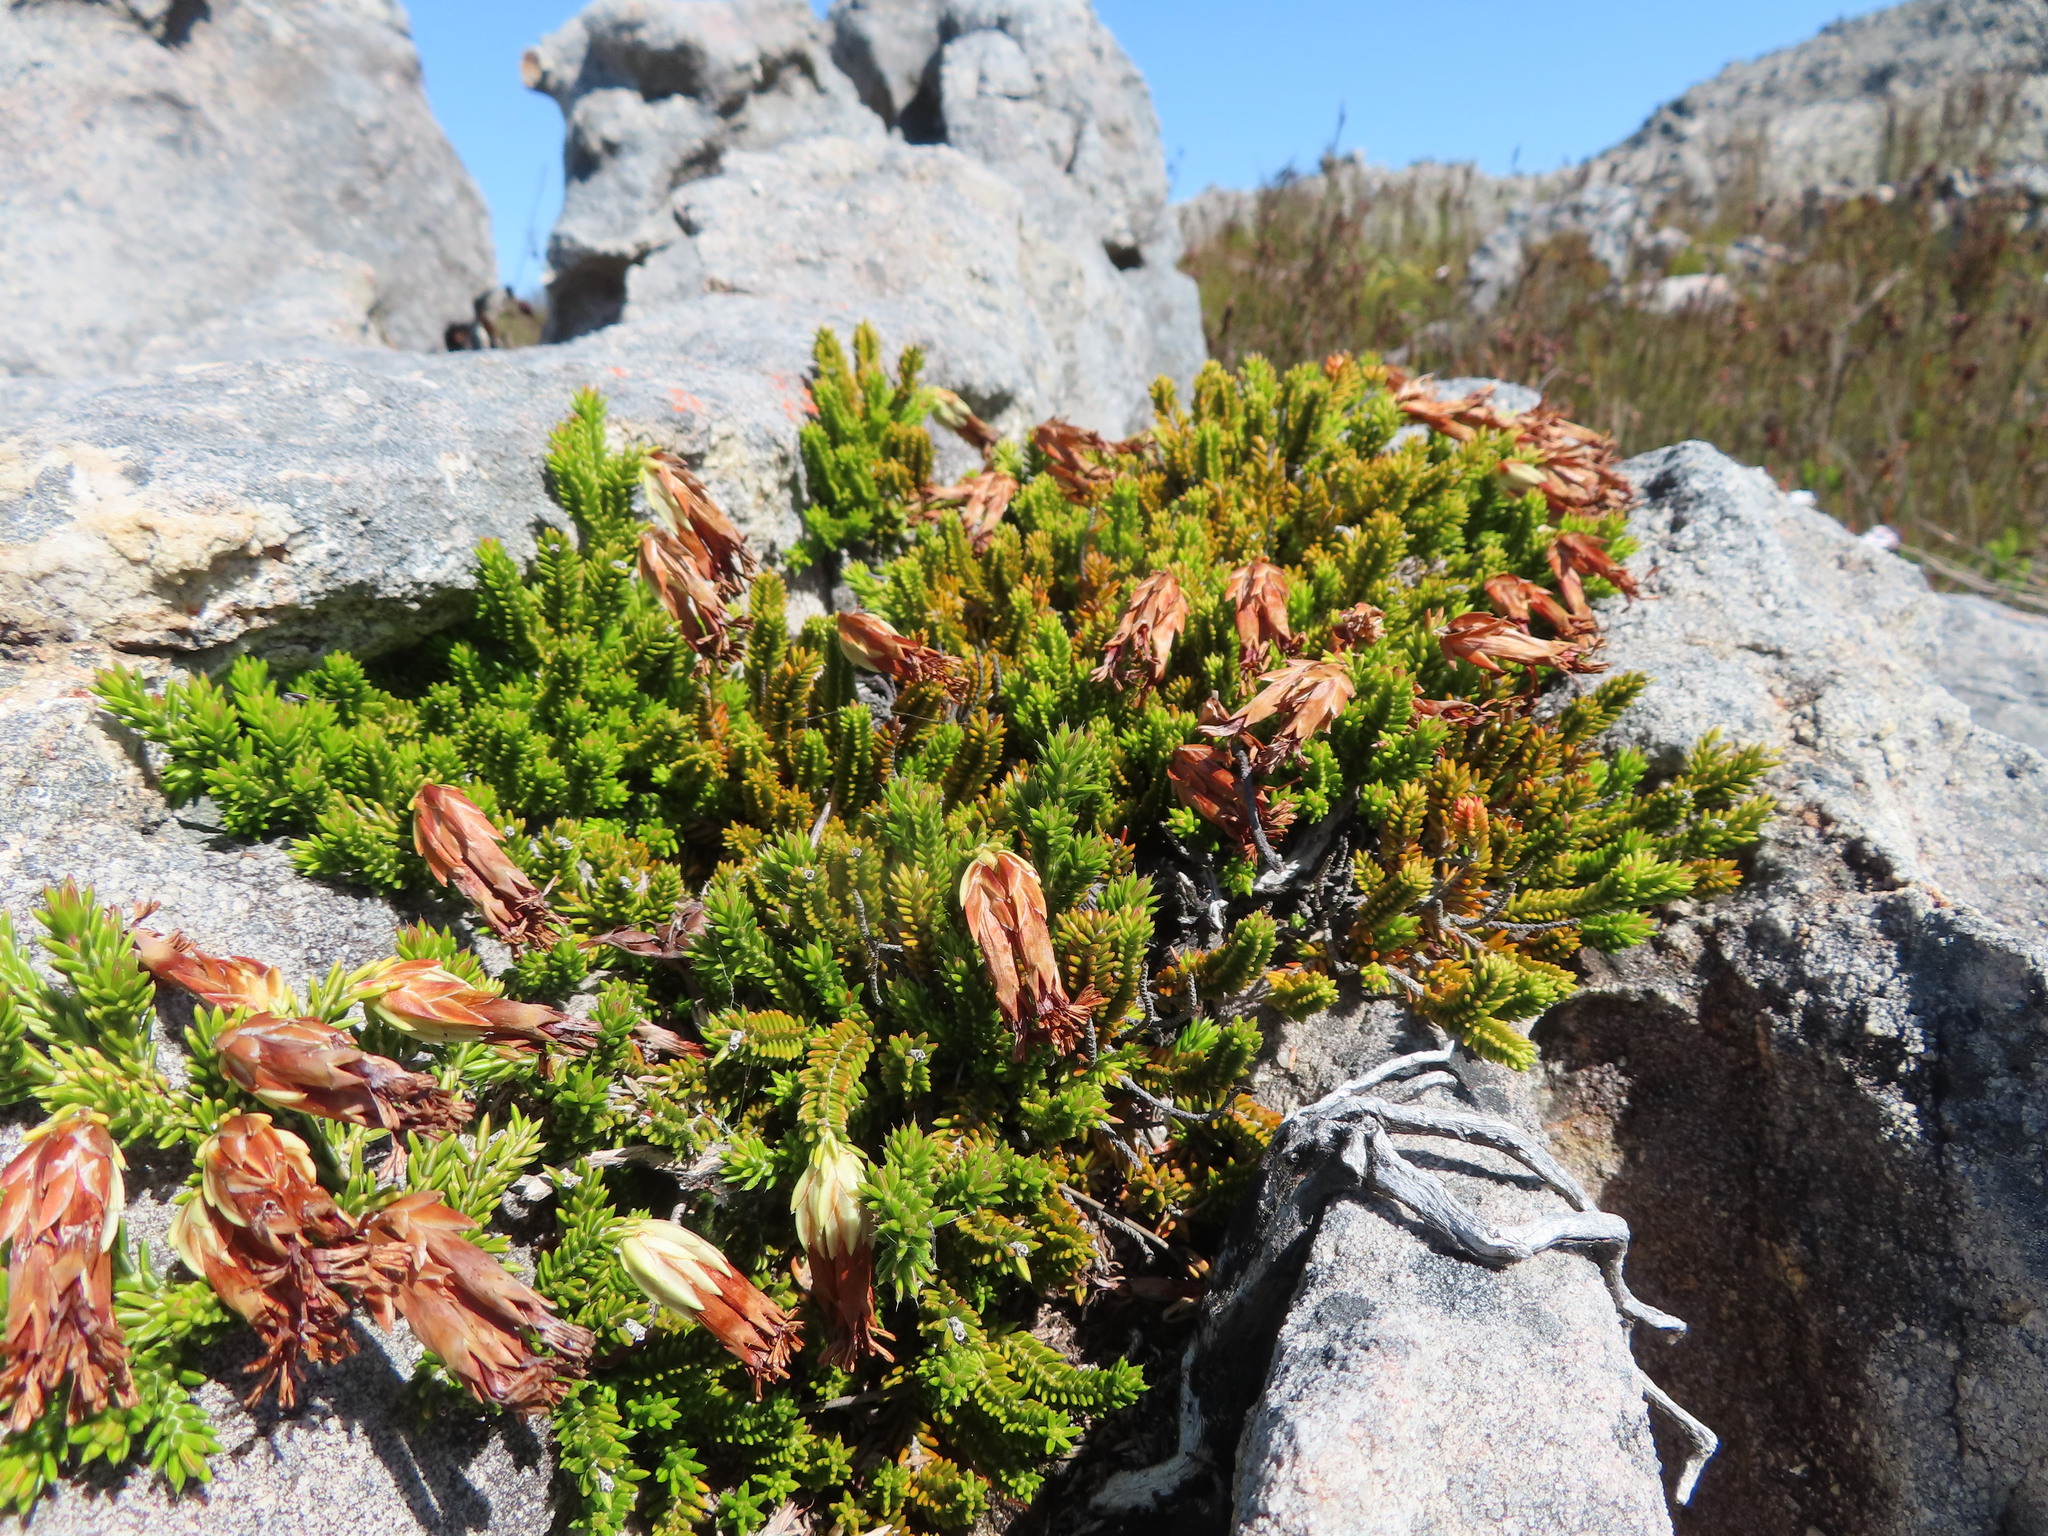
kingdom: Plantae
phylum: Tracheophyta
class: Magnoliopsida
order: Ericales
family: Ericaceae
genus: Erica
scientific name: Erica banksia
